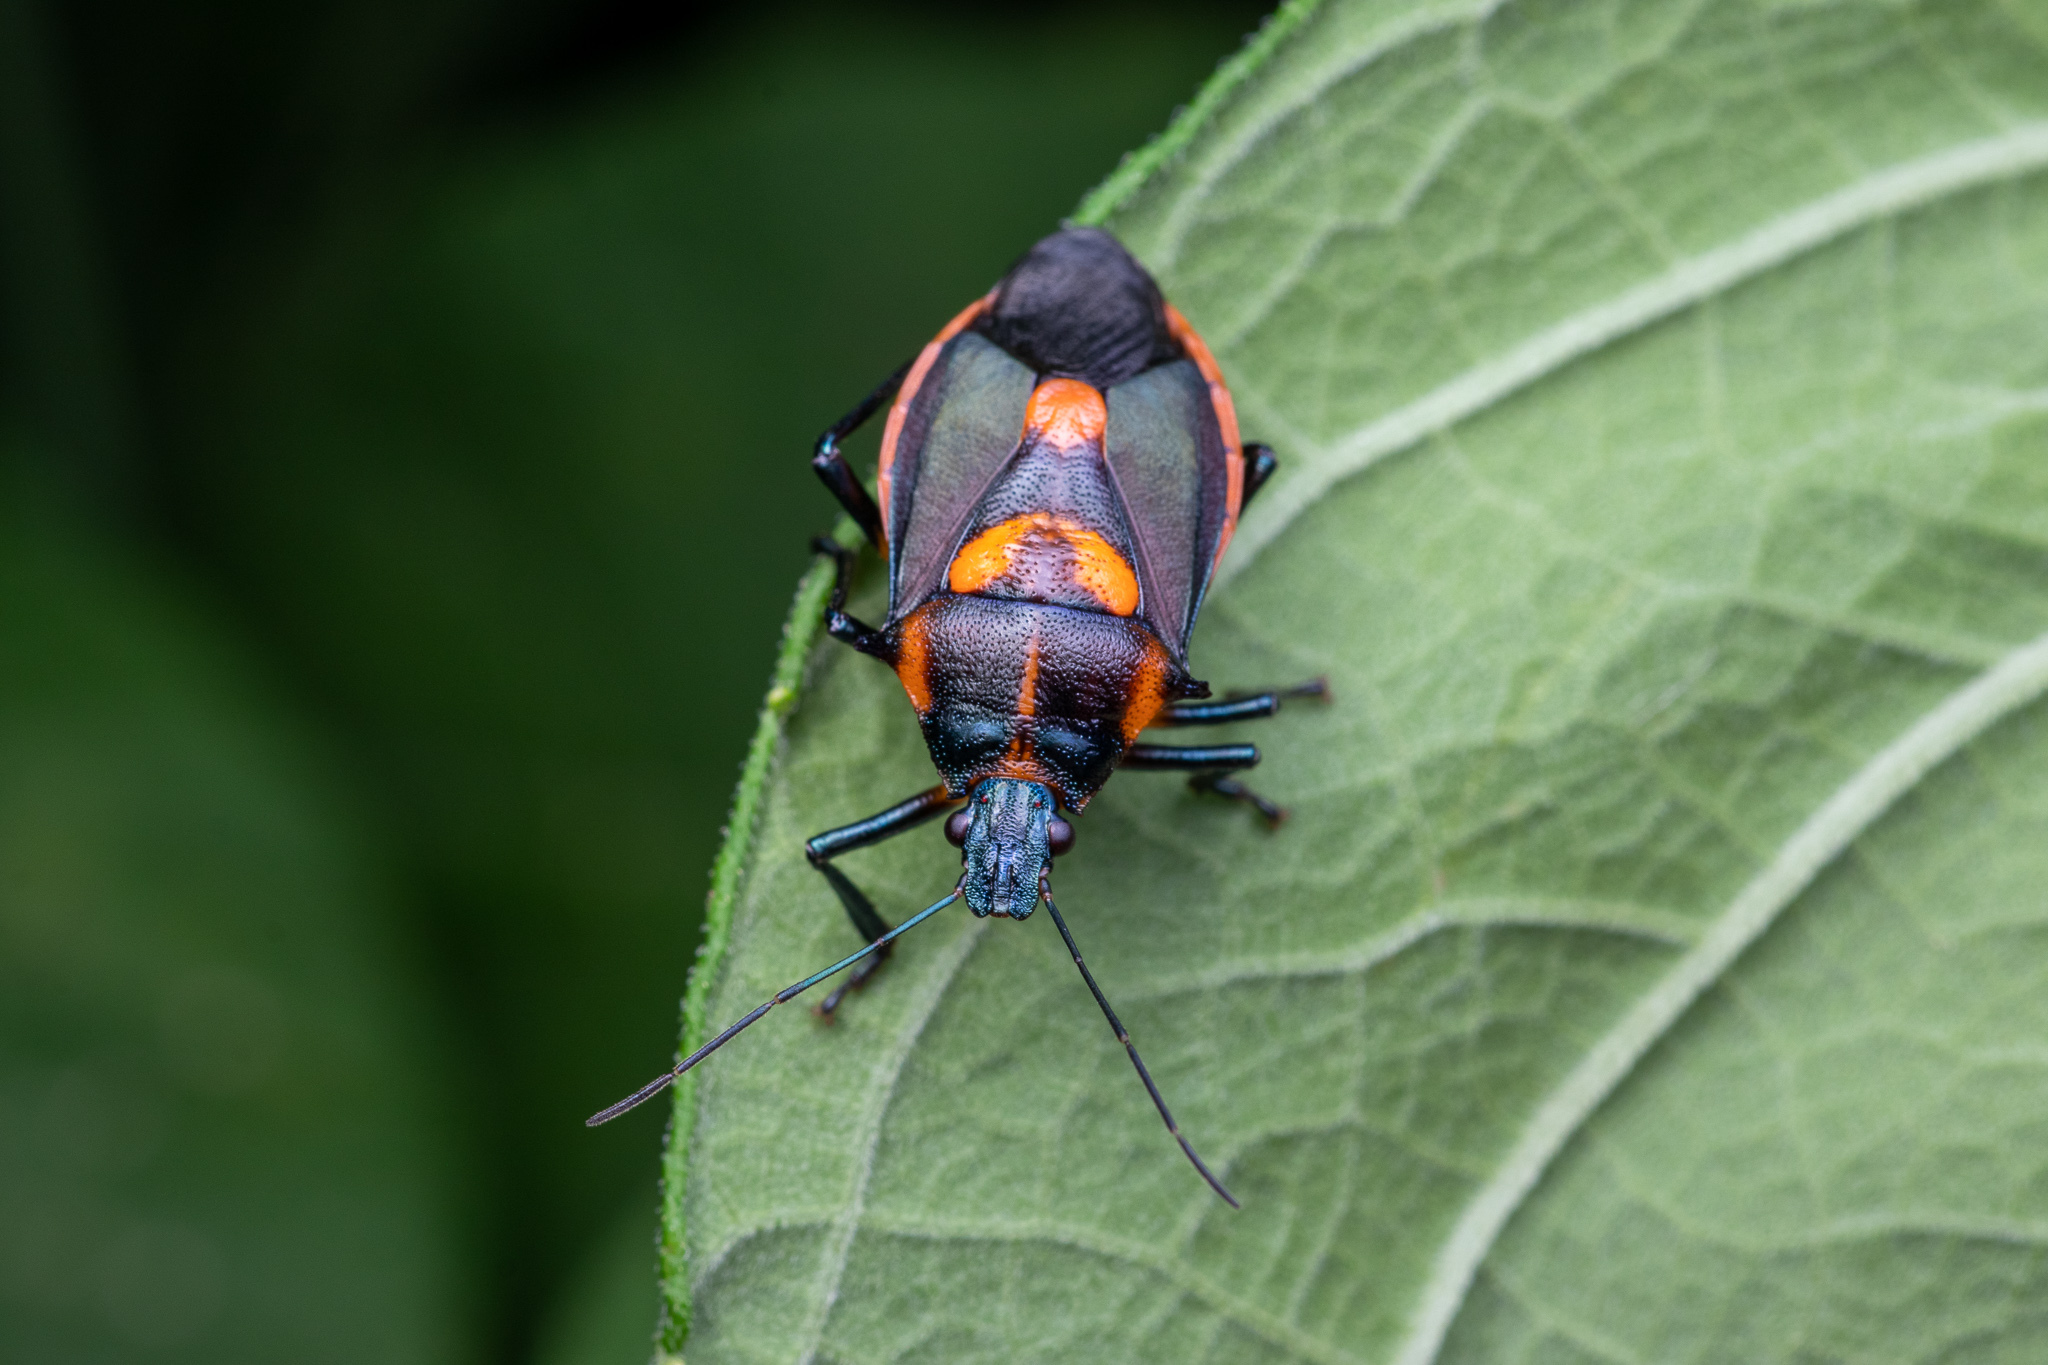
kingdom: Animalia
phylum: Arthropoda
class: Insecta
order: Hemiptera
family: Pentatomidae
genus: Euthyrhynchus
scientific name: Euthyrhynchus floridanus
